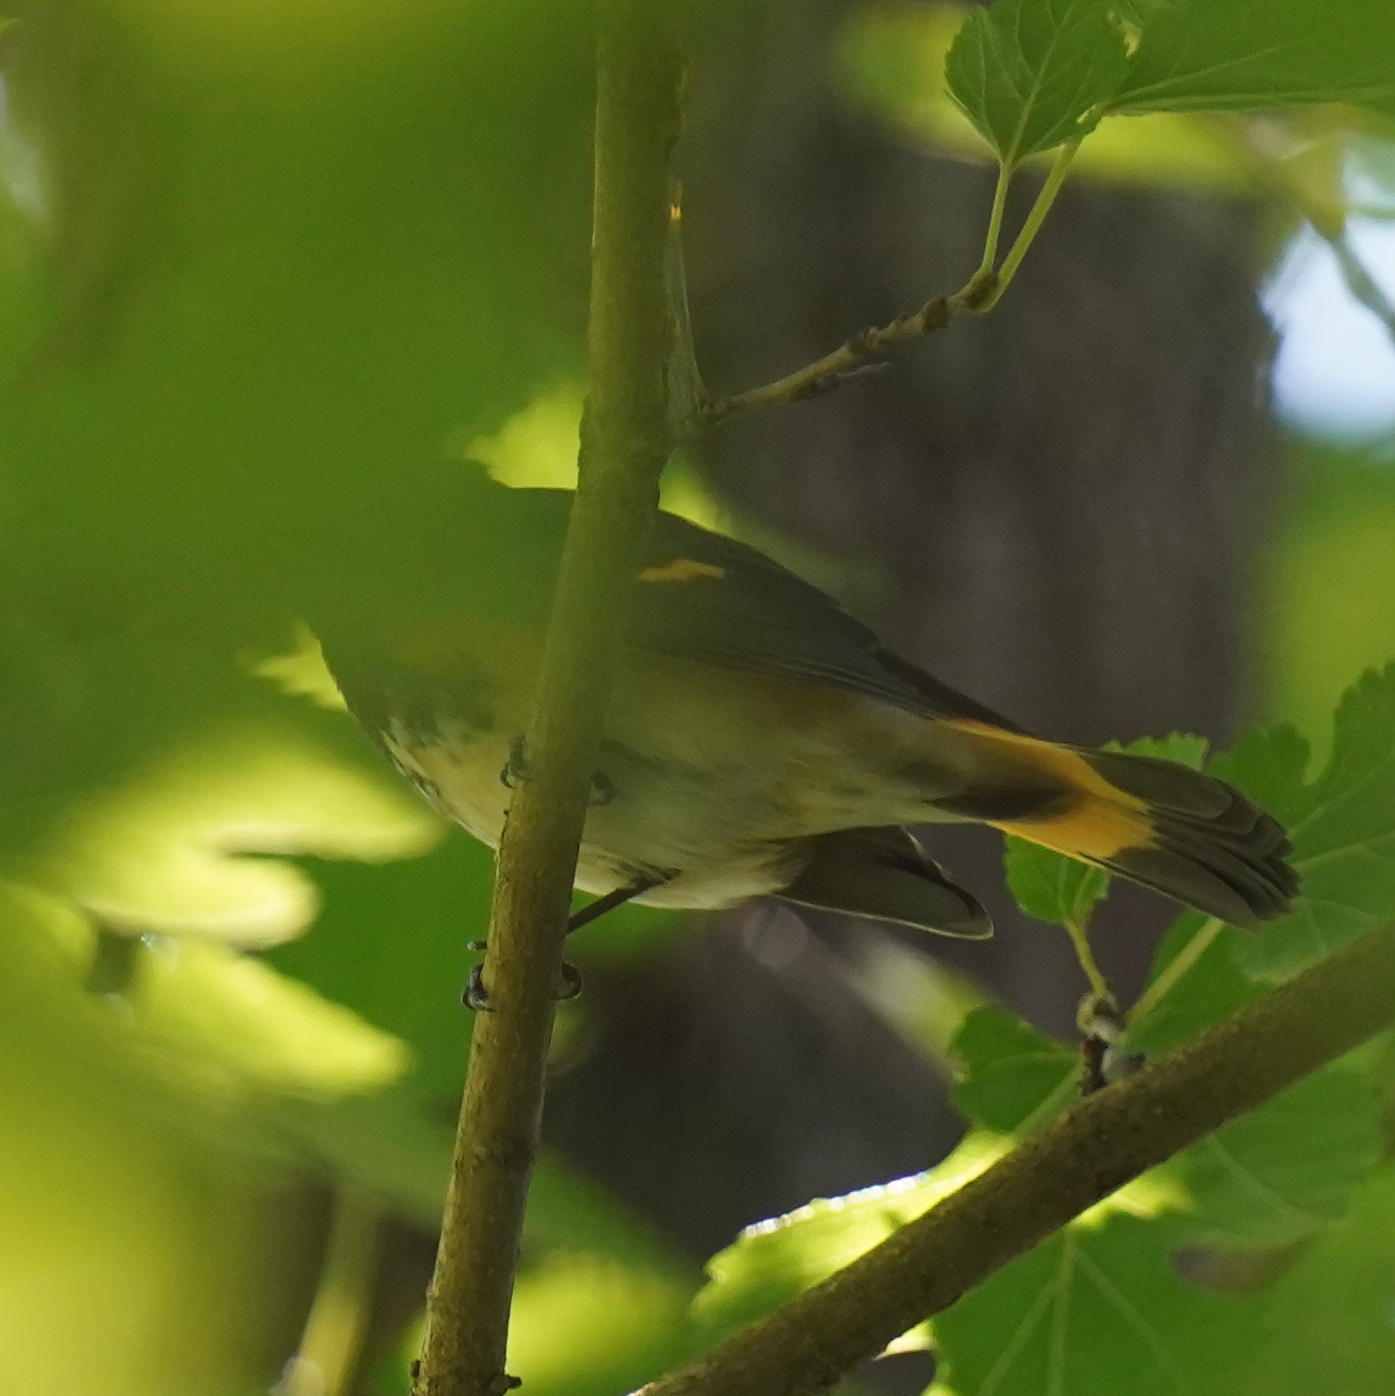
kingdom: Animalia
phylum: Chordata
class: Aves
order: Passeriformes
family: Parulidae
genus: Setophaga
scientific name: Setophaga ruticilla
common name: American redstart
